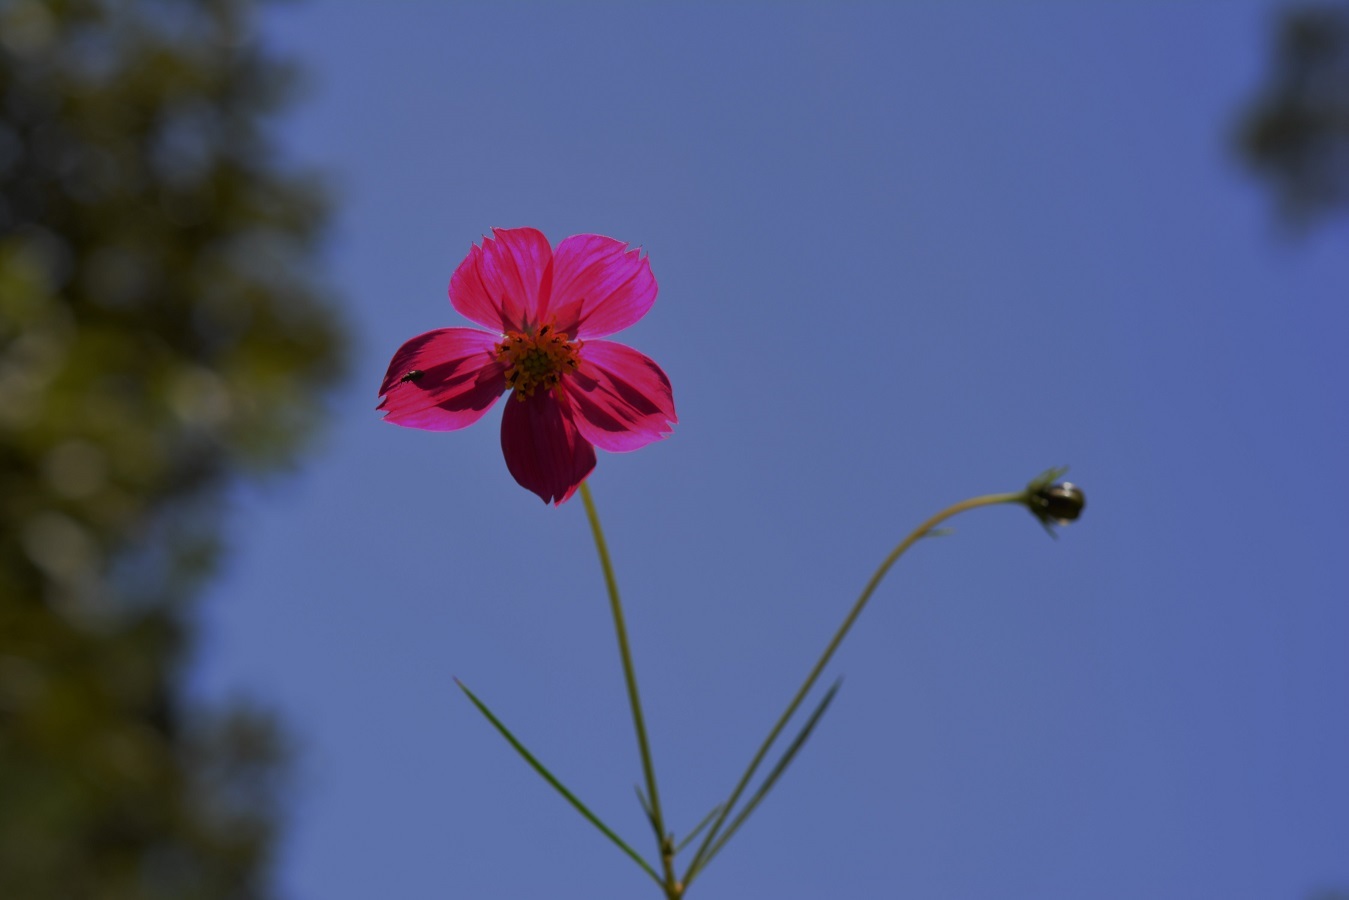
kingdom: Plantae
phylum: Tracheophyta
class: Magnoliopsida
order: Asterales
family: Asteraceae
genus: Cosmos
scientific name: Cosmos crithmifolius
